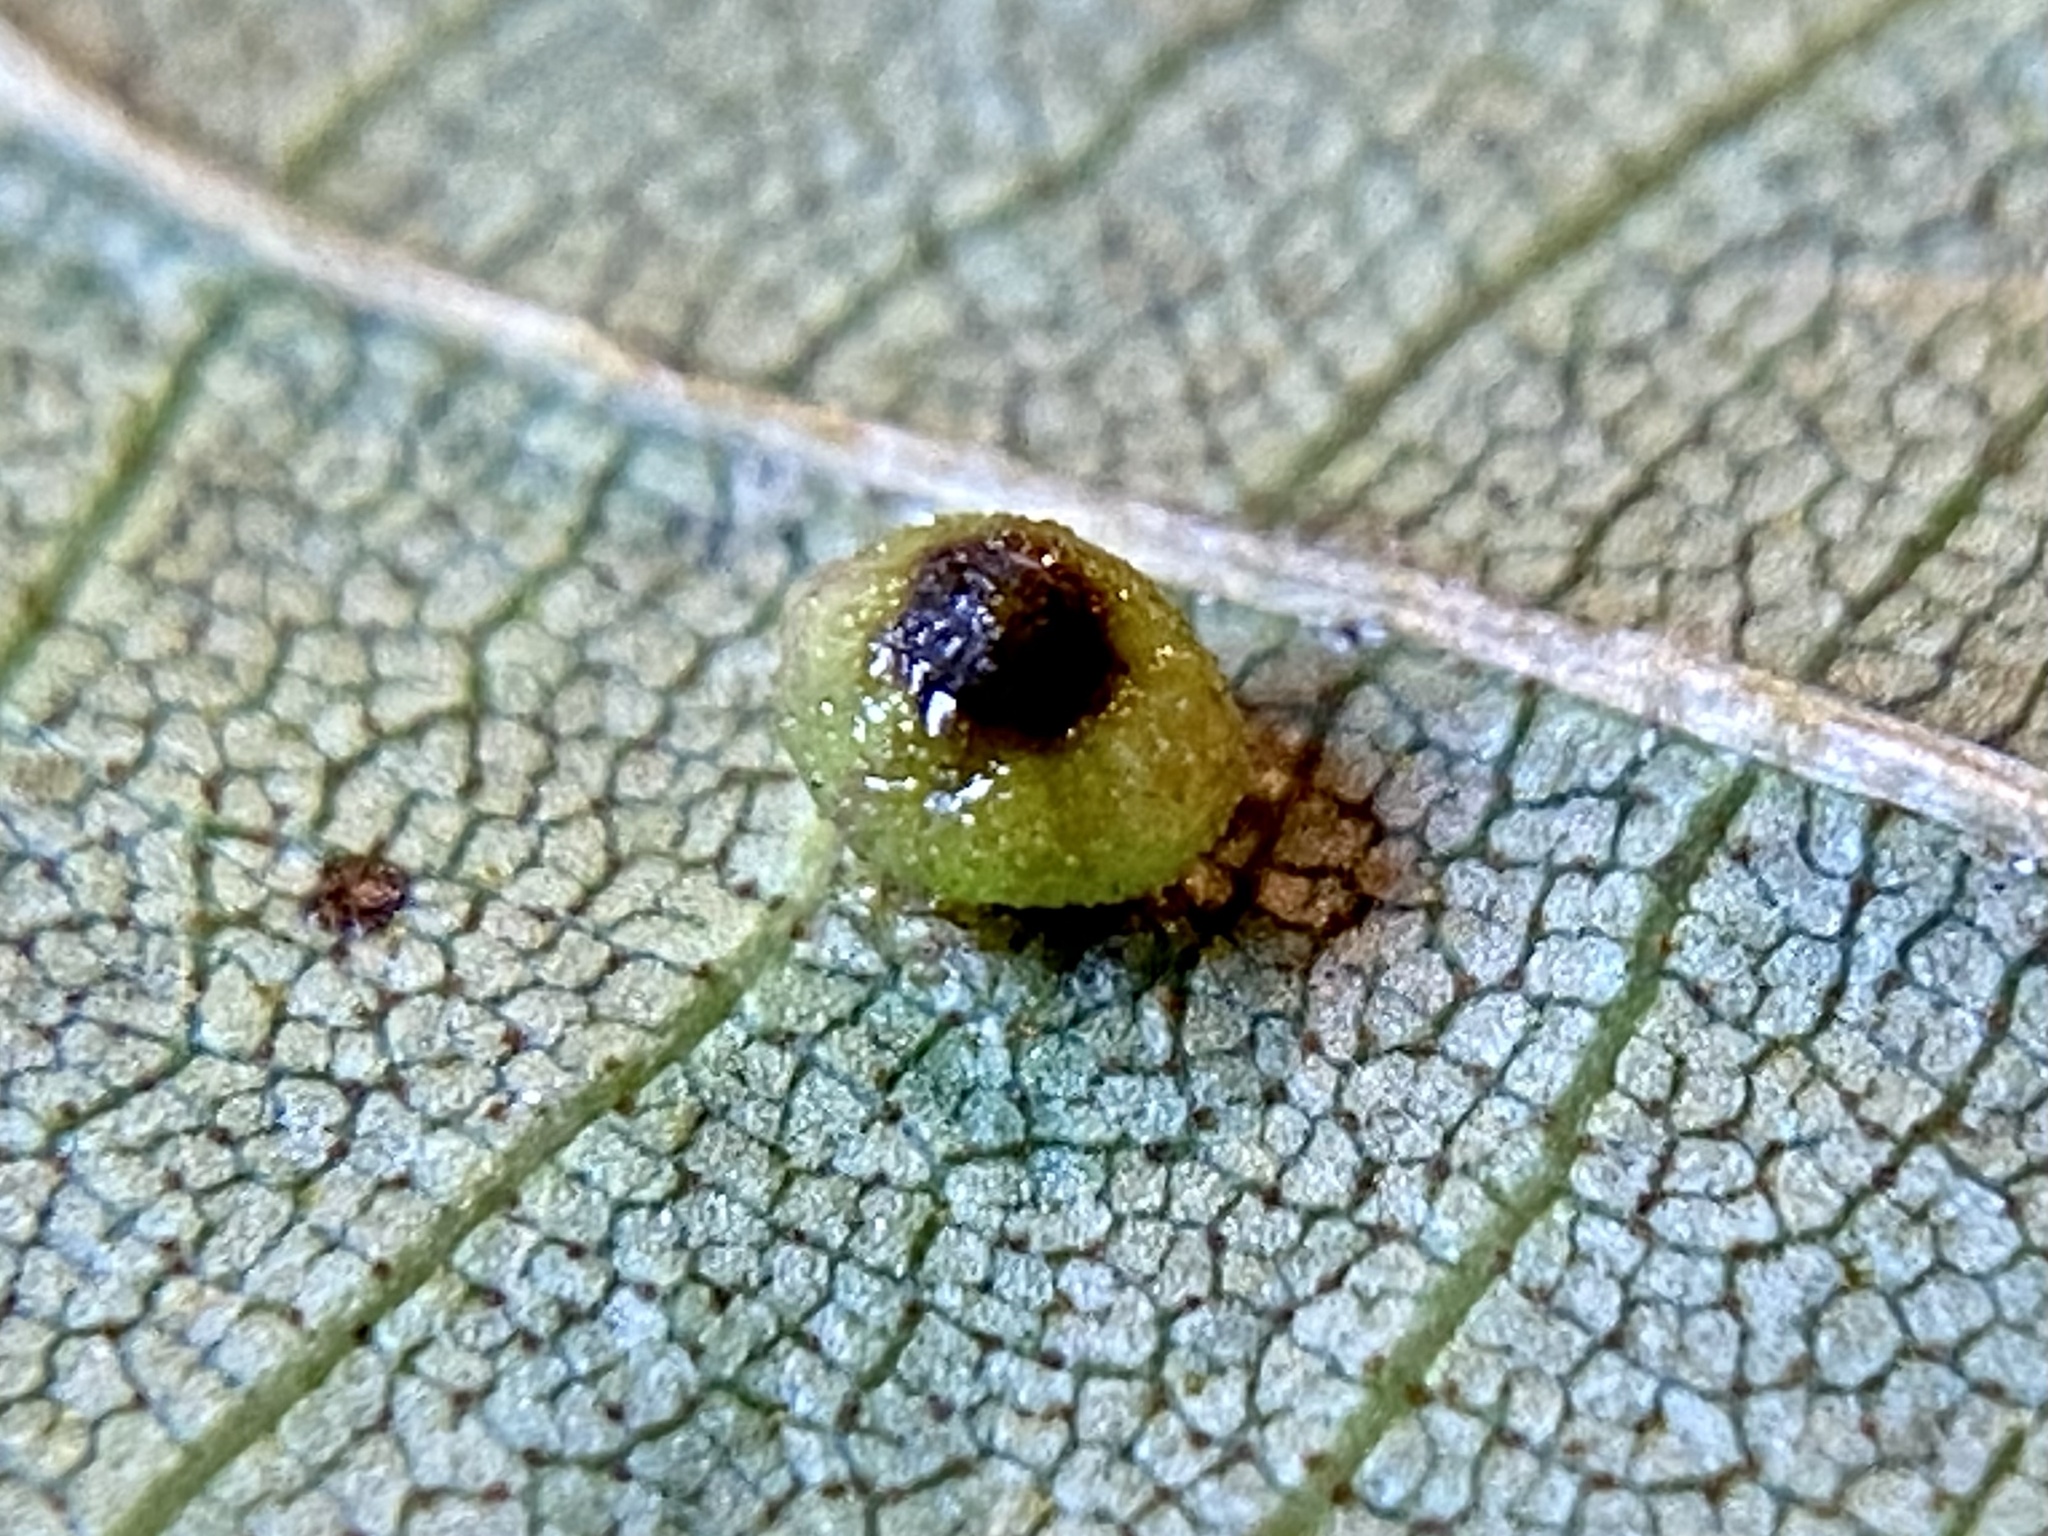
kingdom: Animalia
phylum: Arthropoda
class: Insecta
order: Diptera
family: Cecidomyiidae
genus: Caryomyia
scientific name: Caryomyia caryae
